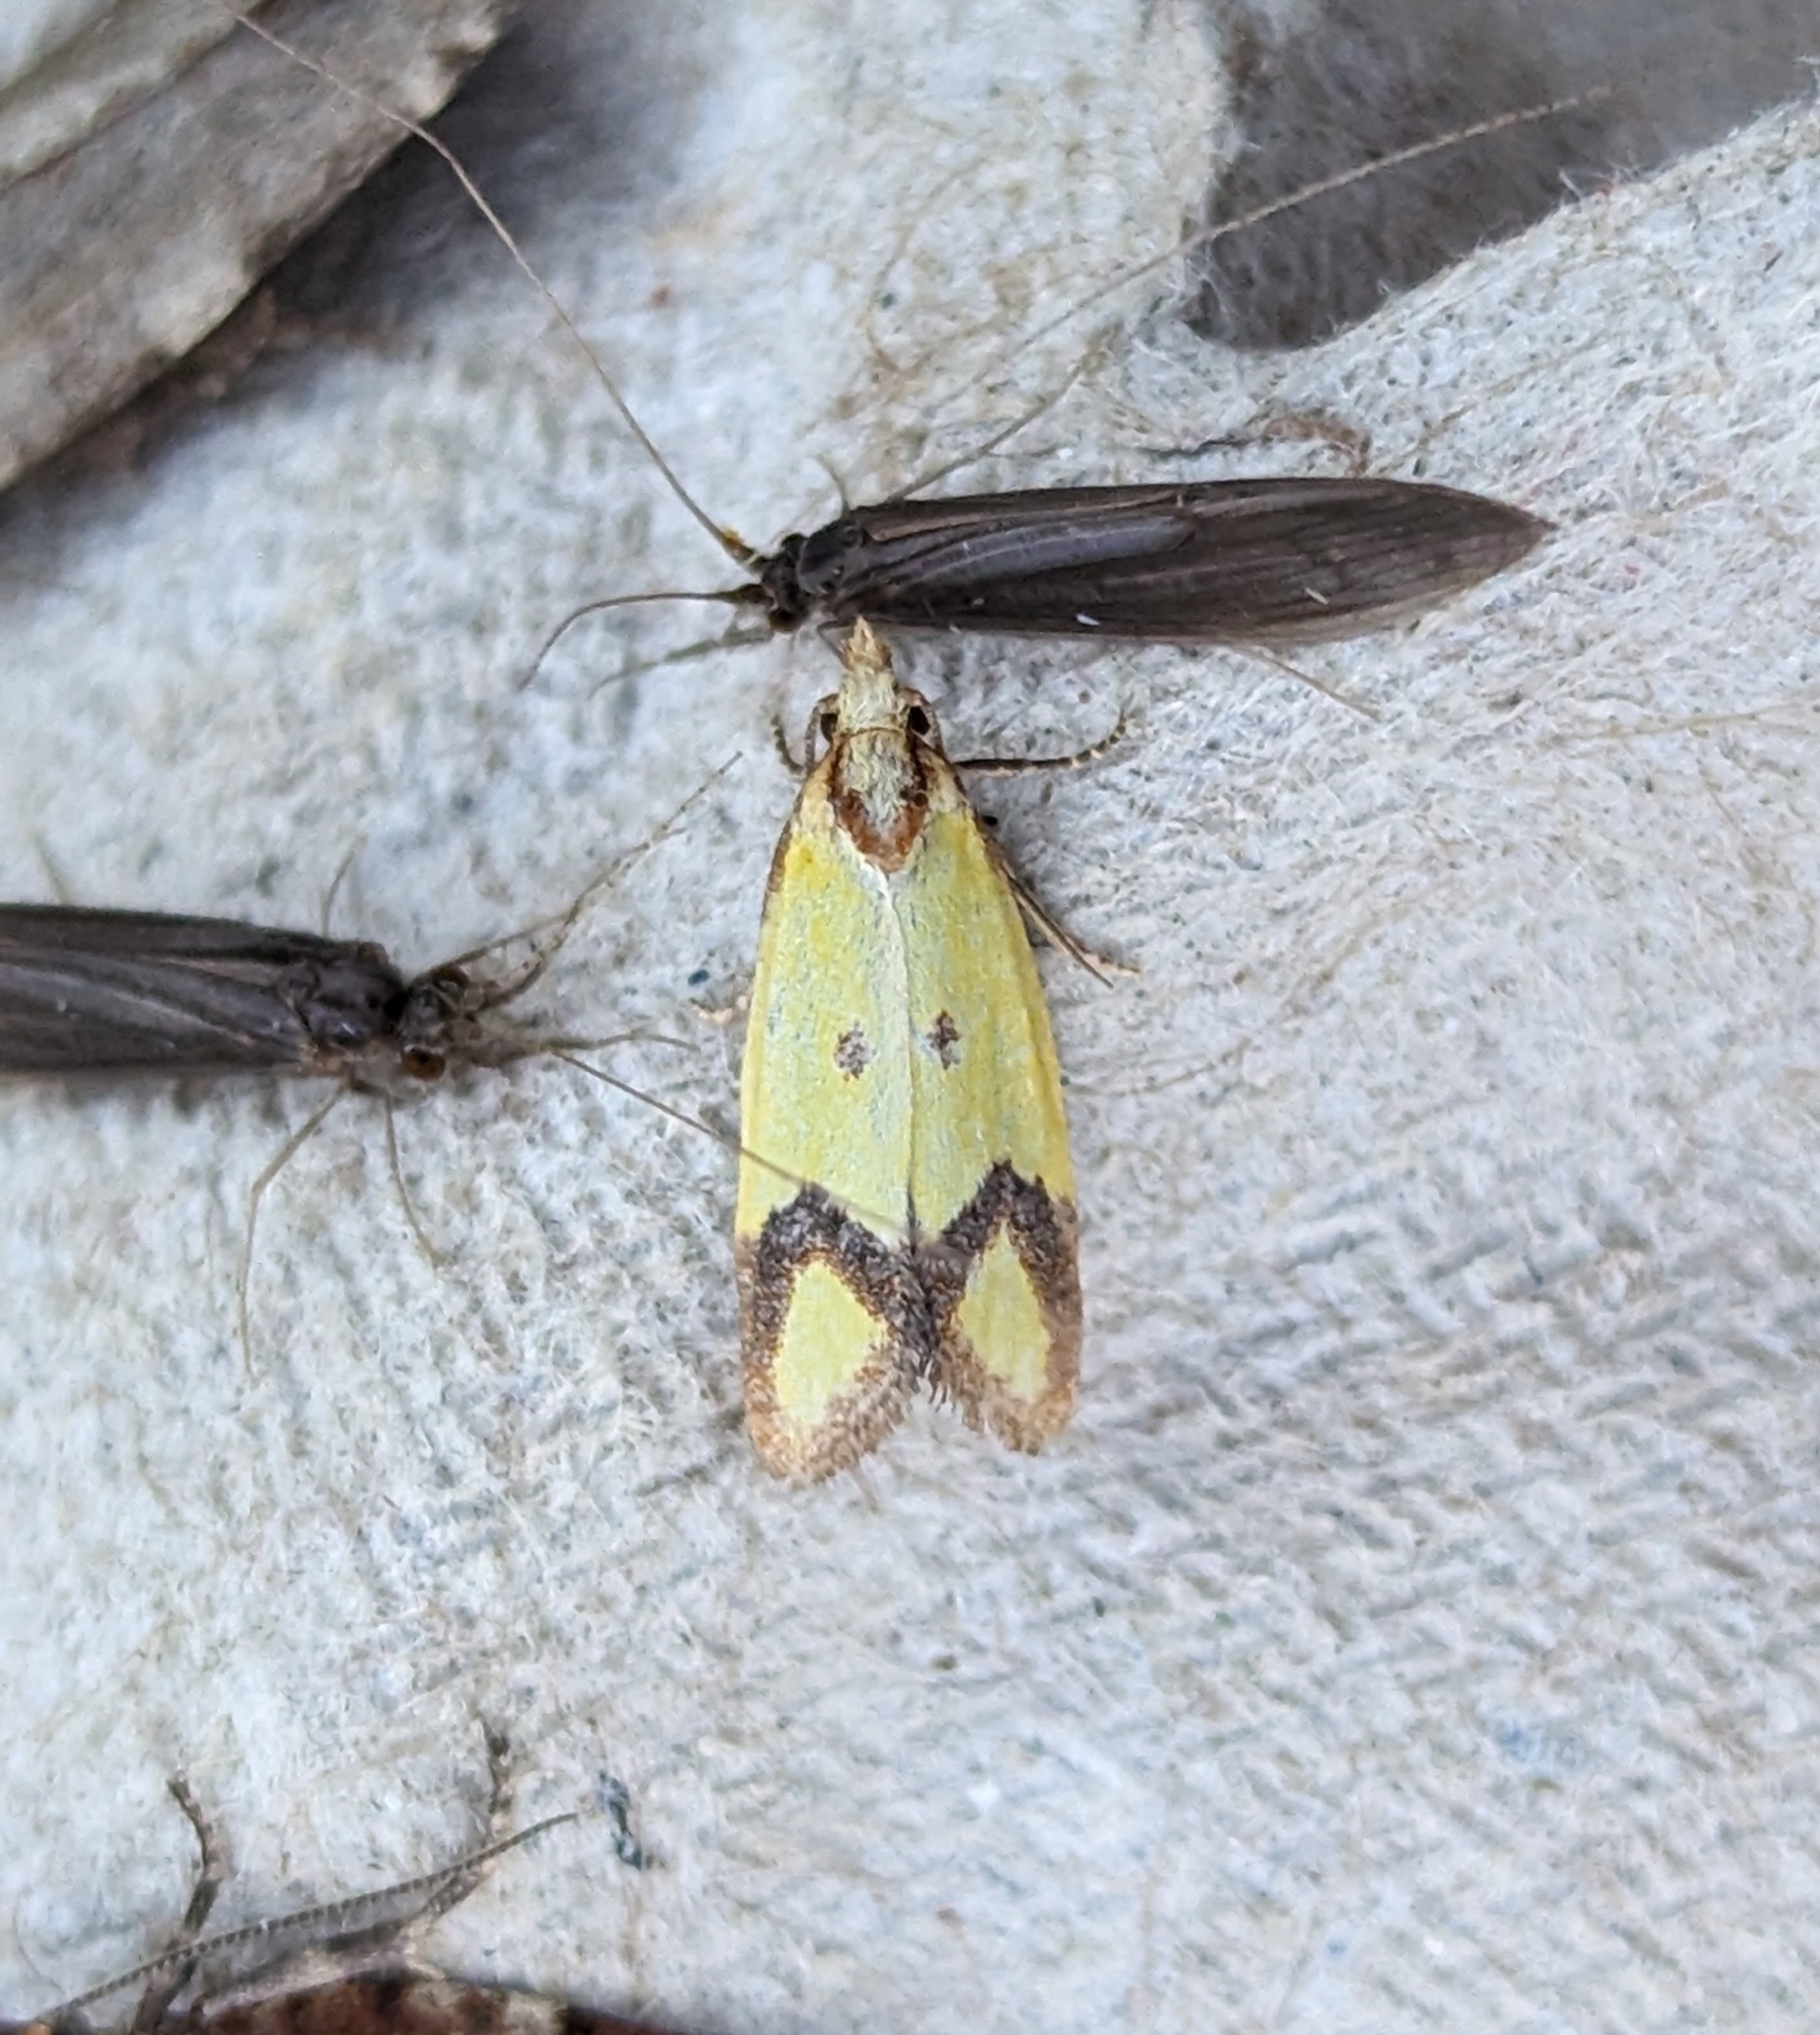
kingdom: Animalia
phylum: Arthropoda
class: Insecta
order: Lepidoptera
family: Tortricidae
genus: Agapeta
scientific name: Agapeta zoegana
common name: Sulfur knapweed root moth
